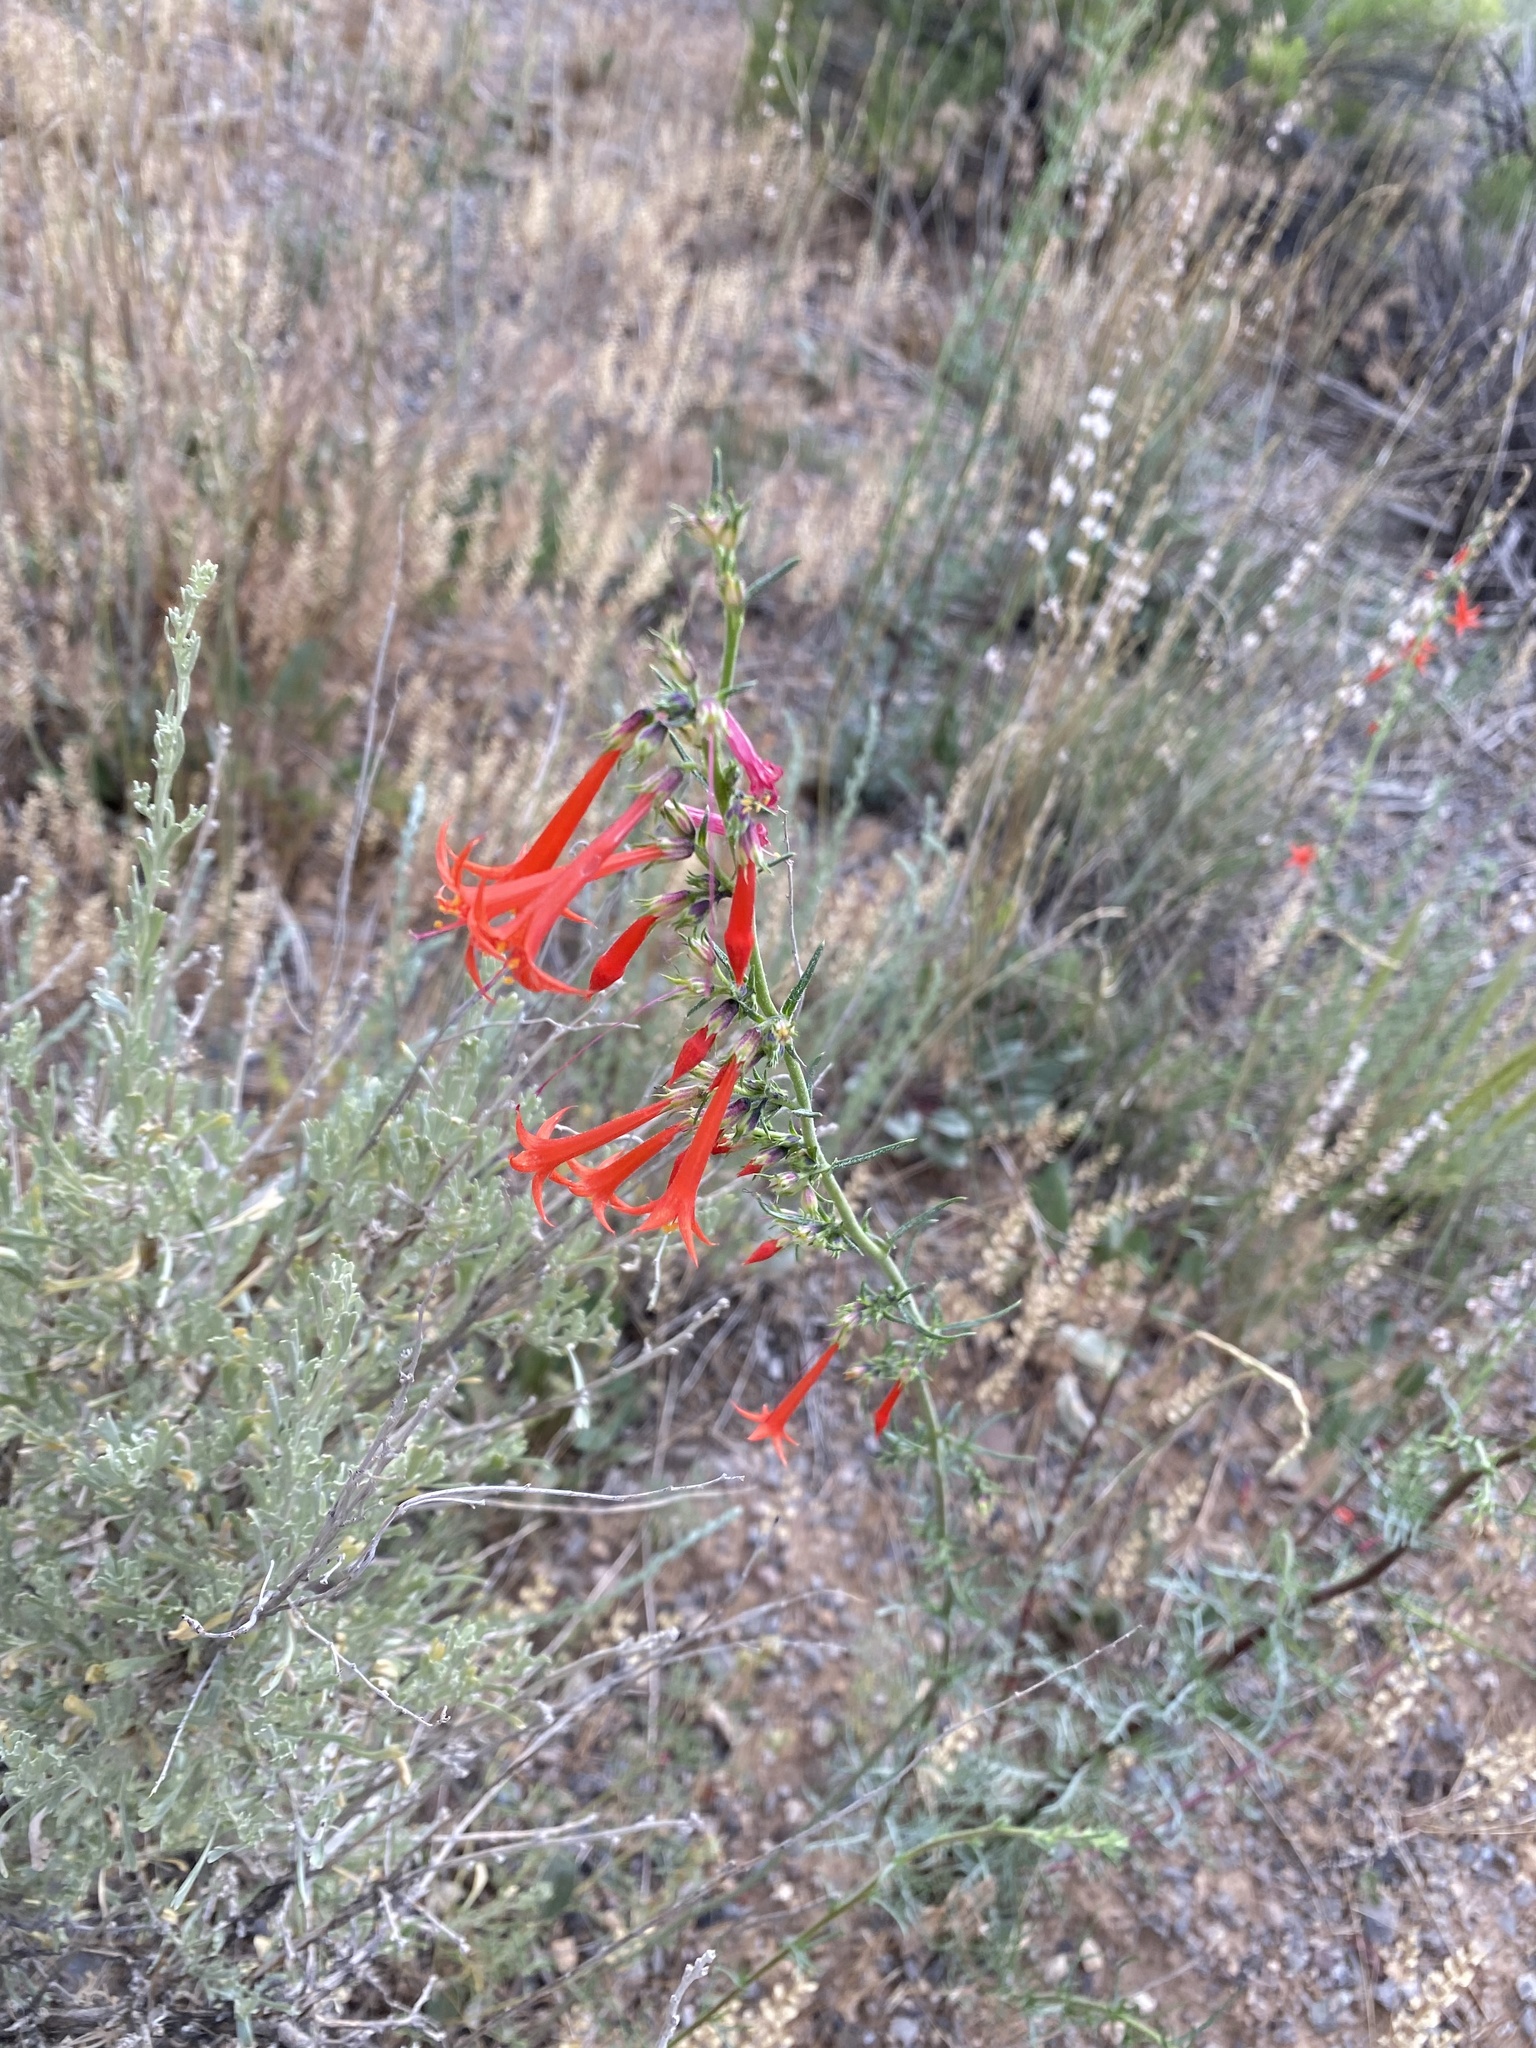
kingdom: Plantae
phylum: Tracheophyta
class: Magnoliopsida
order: Ericales
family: Polemoniaceae
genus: Ipomopsis
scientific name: Ipomopsis aggregata
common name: Scarlet gilia
